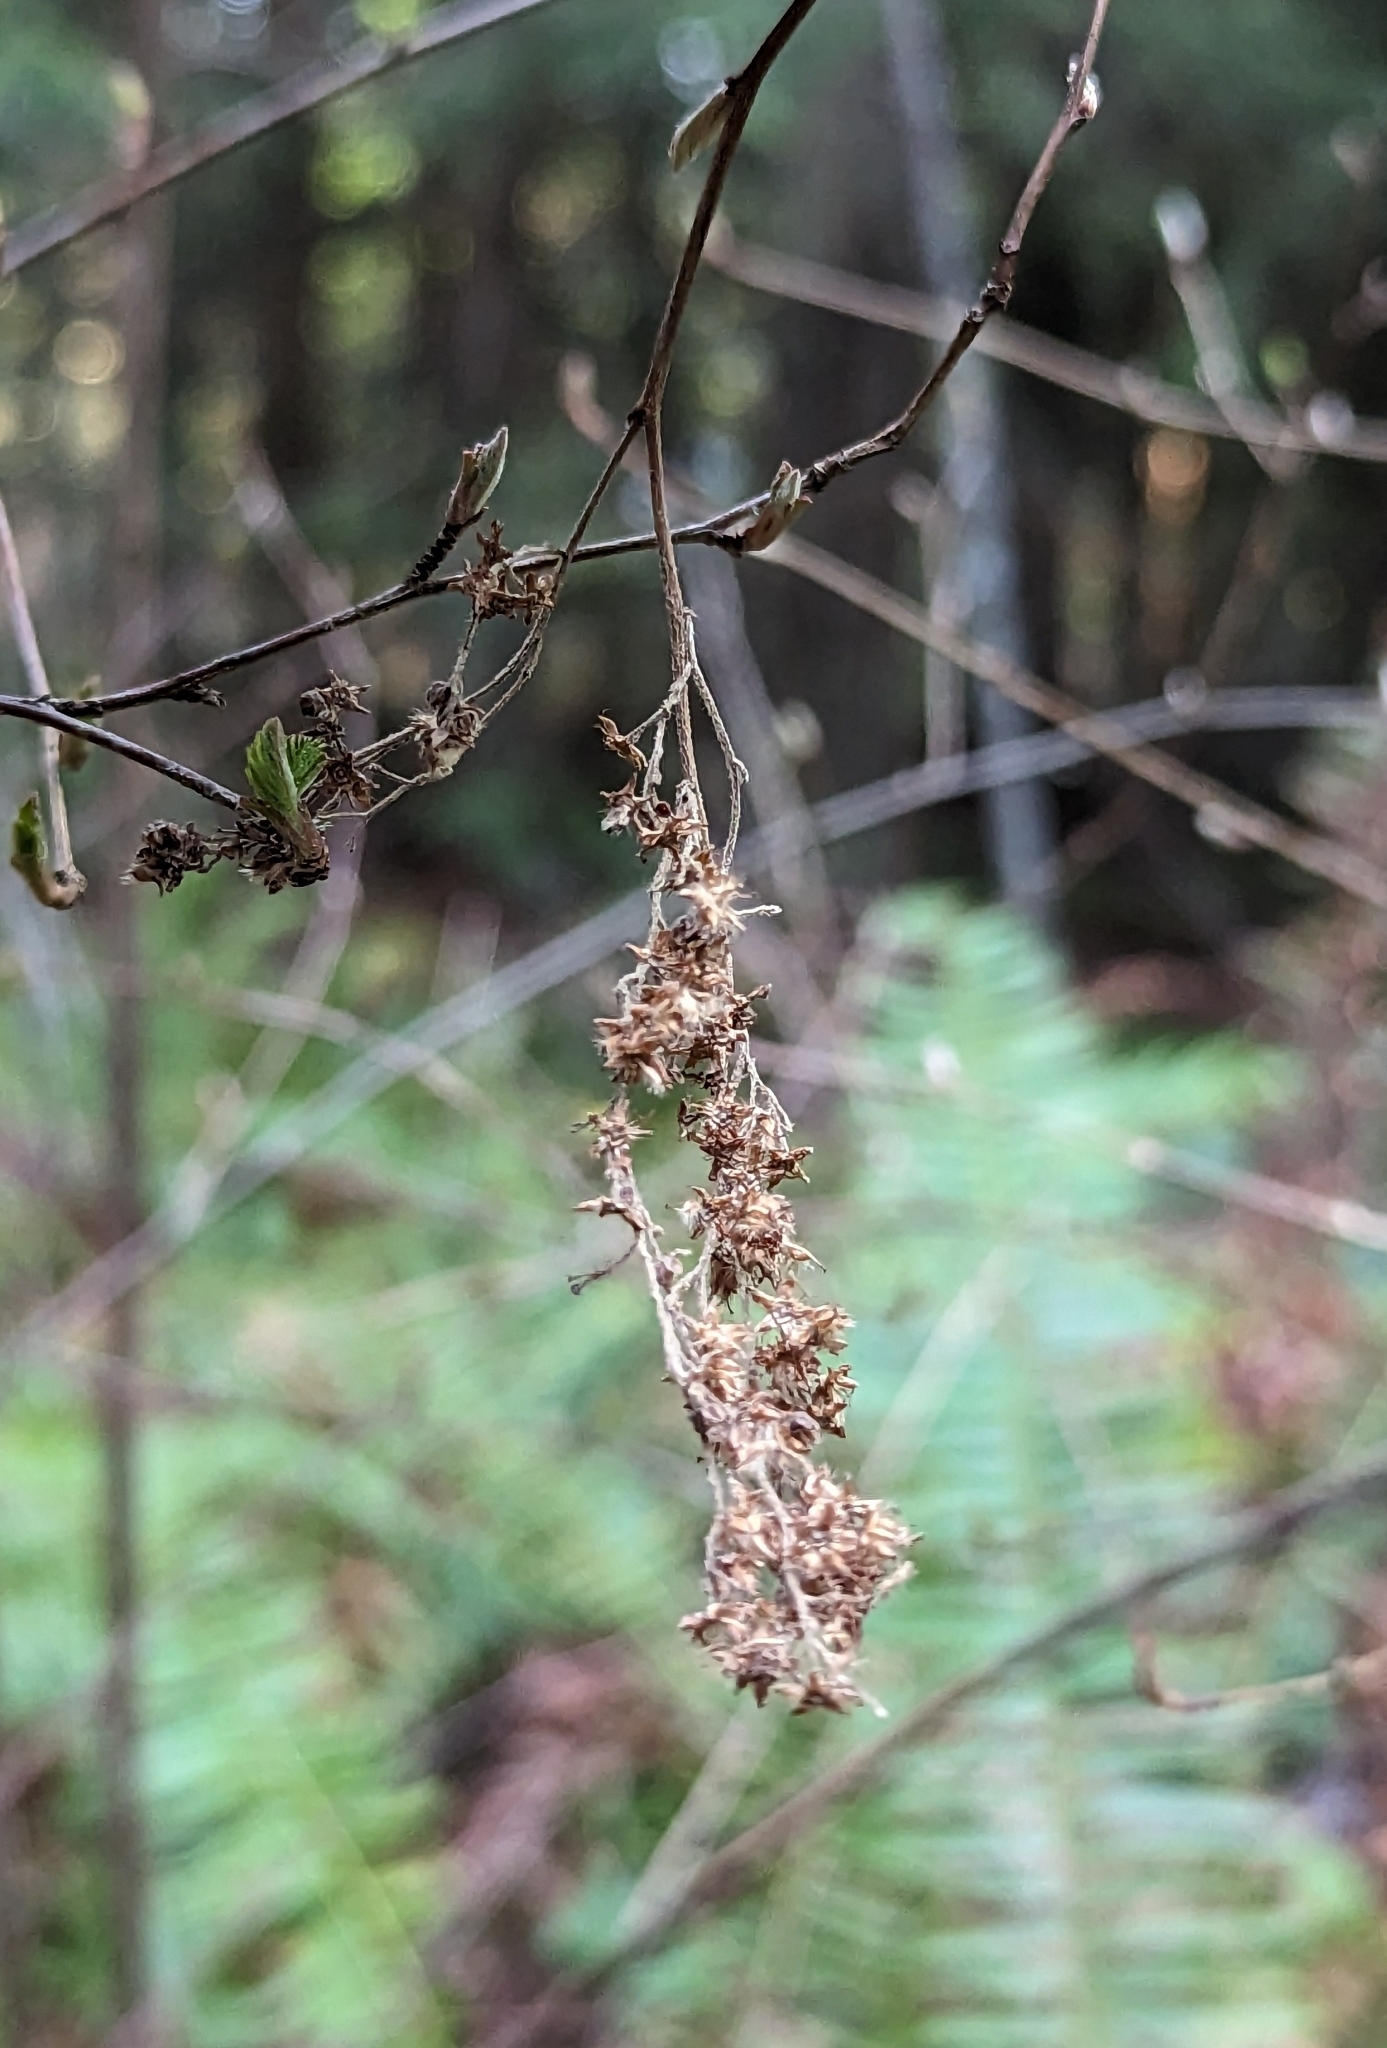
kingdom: Plantae
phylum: Tracheophyta
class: Magnoliopsida
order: Rosales
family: Rosaceae
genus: Holodiscus
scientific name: Holodiscus discolor
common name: Oceanspray
